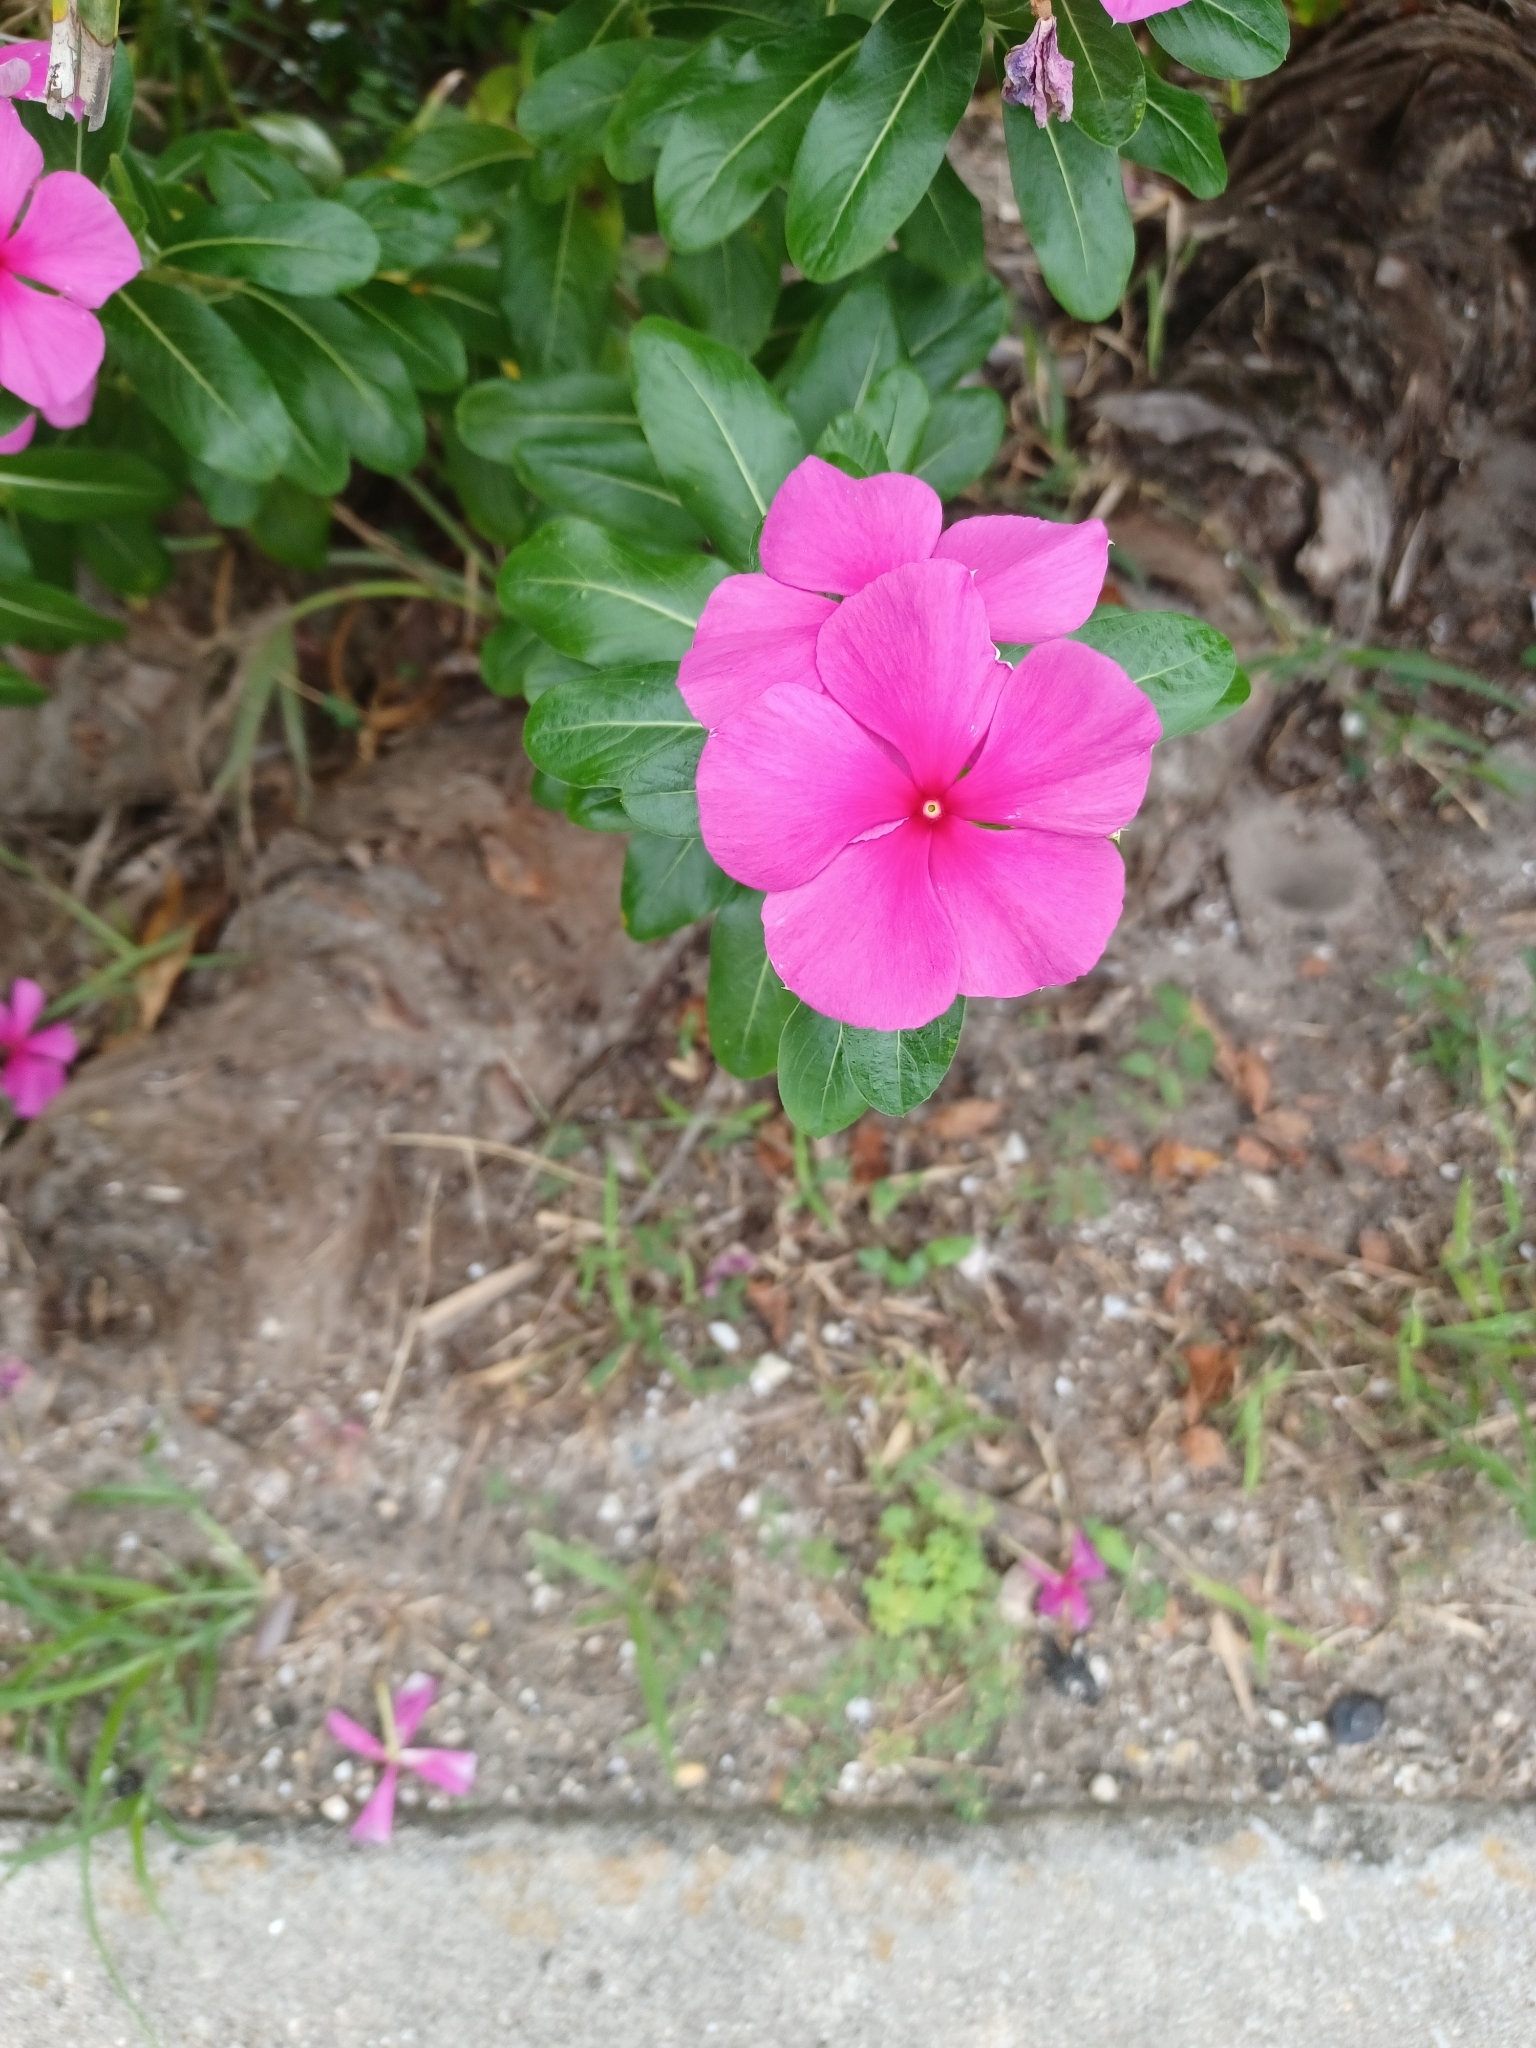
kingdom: Plantae
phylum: Tracheophyta
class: Magnoliopsida
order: Gentianales
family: Apocynaceae
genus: Catharanthus
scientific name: Catharanthus roseus
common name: Madagascar periwinkle
